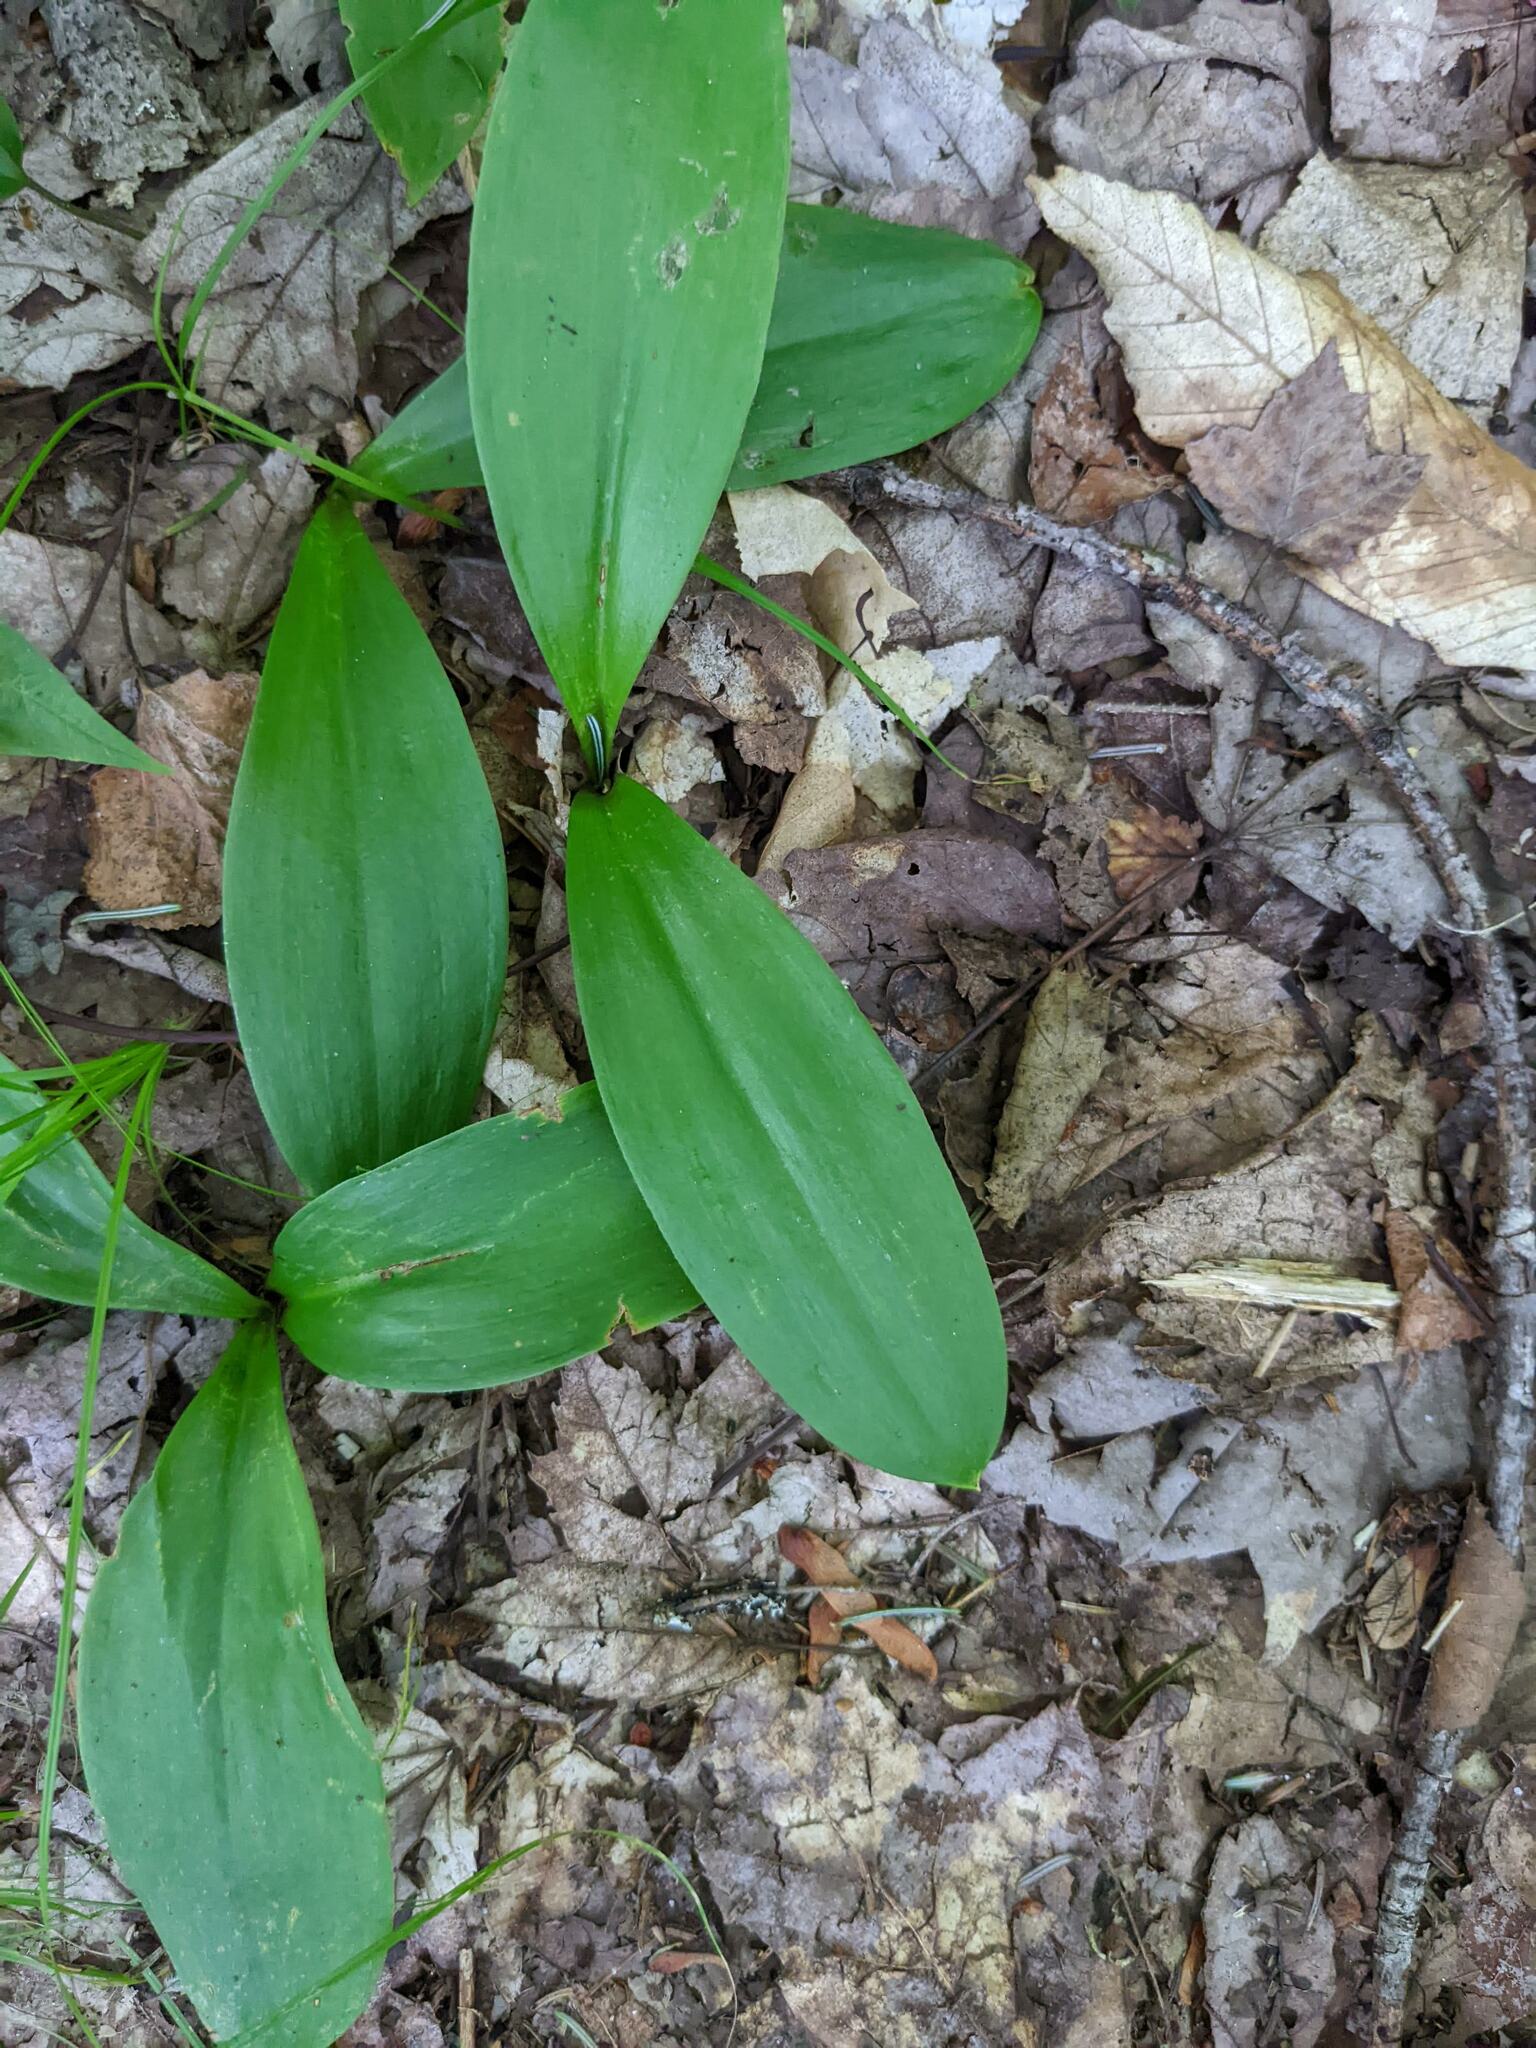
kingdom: Plantae
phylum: Tracheophyta
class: Liliopsida
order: Liliales
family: Liliaceae
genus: Clintonia
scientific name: Clintonia borealis
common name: Yellow clintonia
